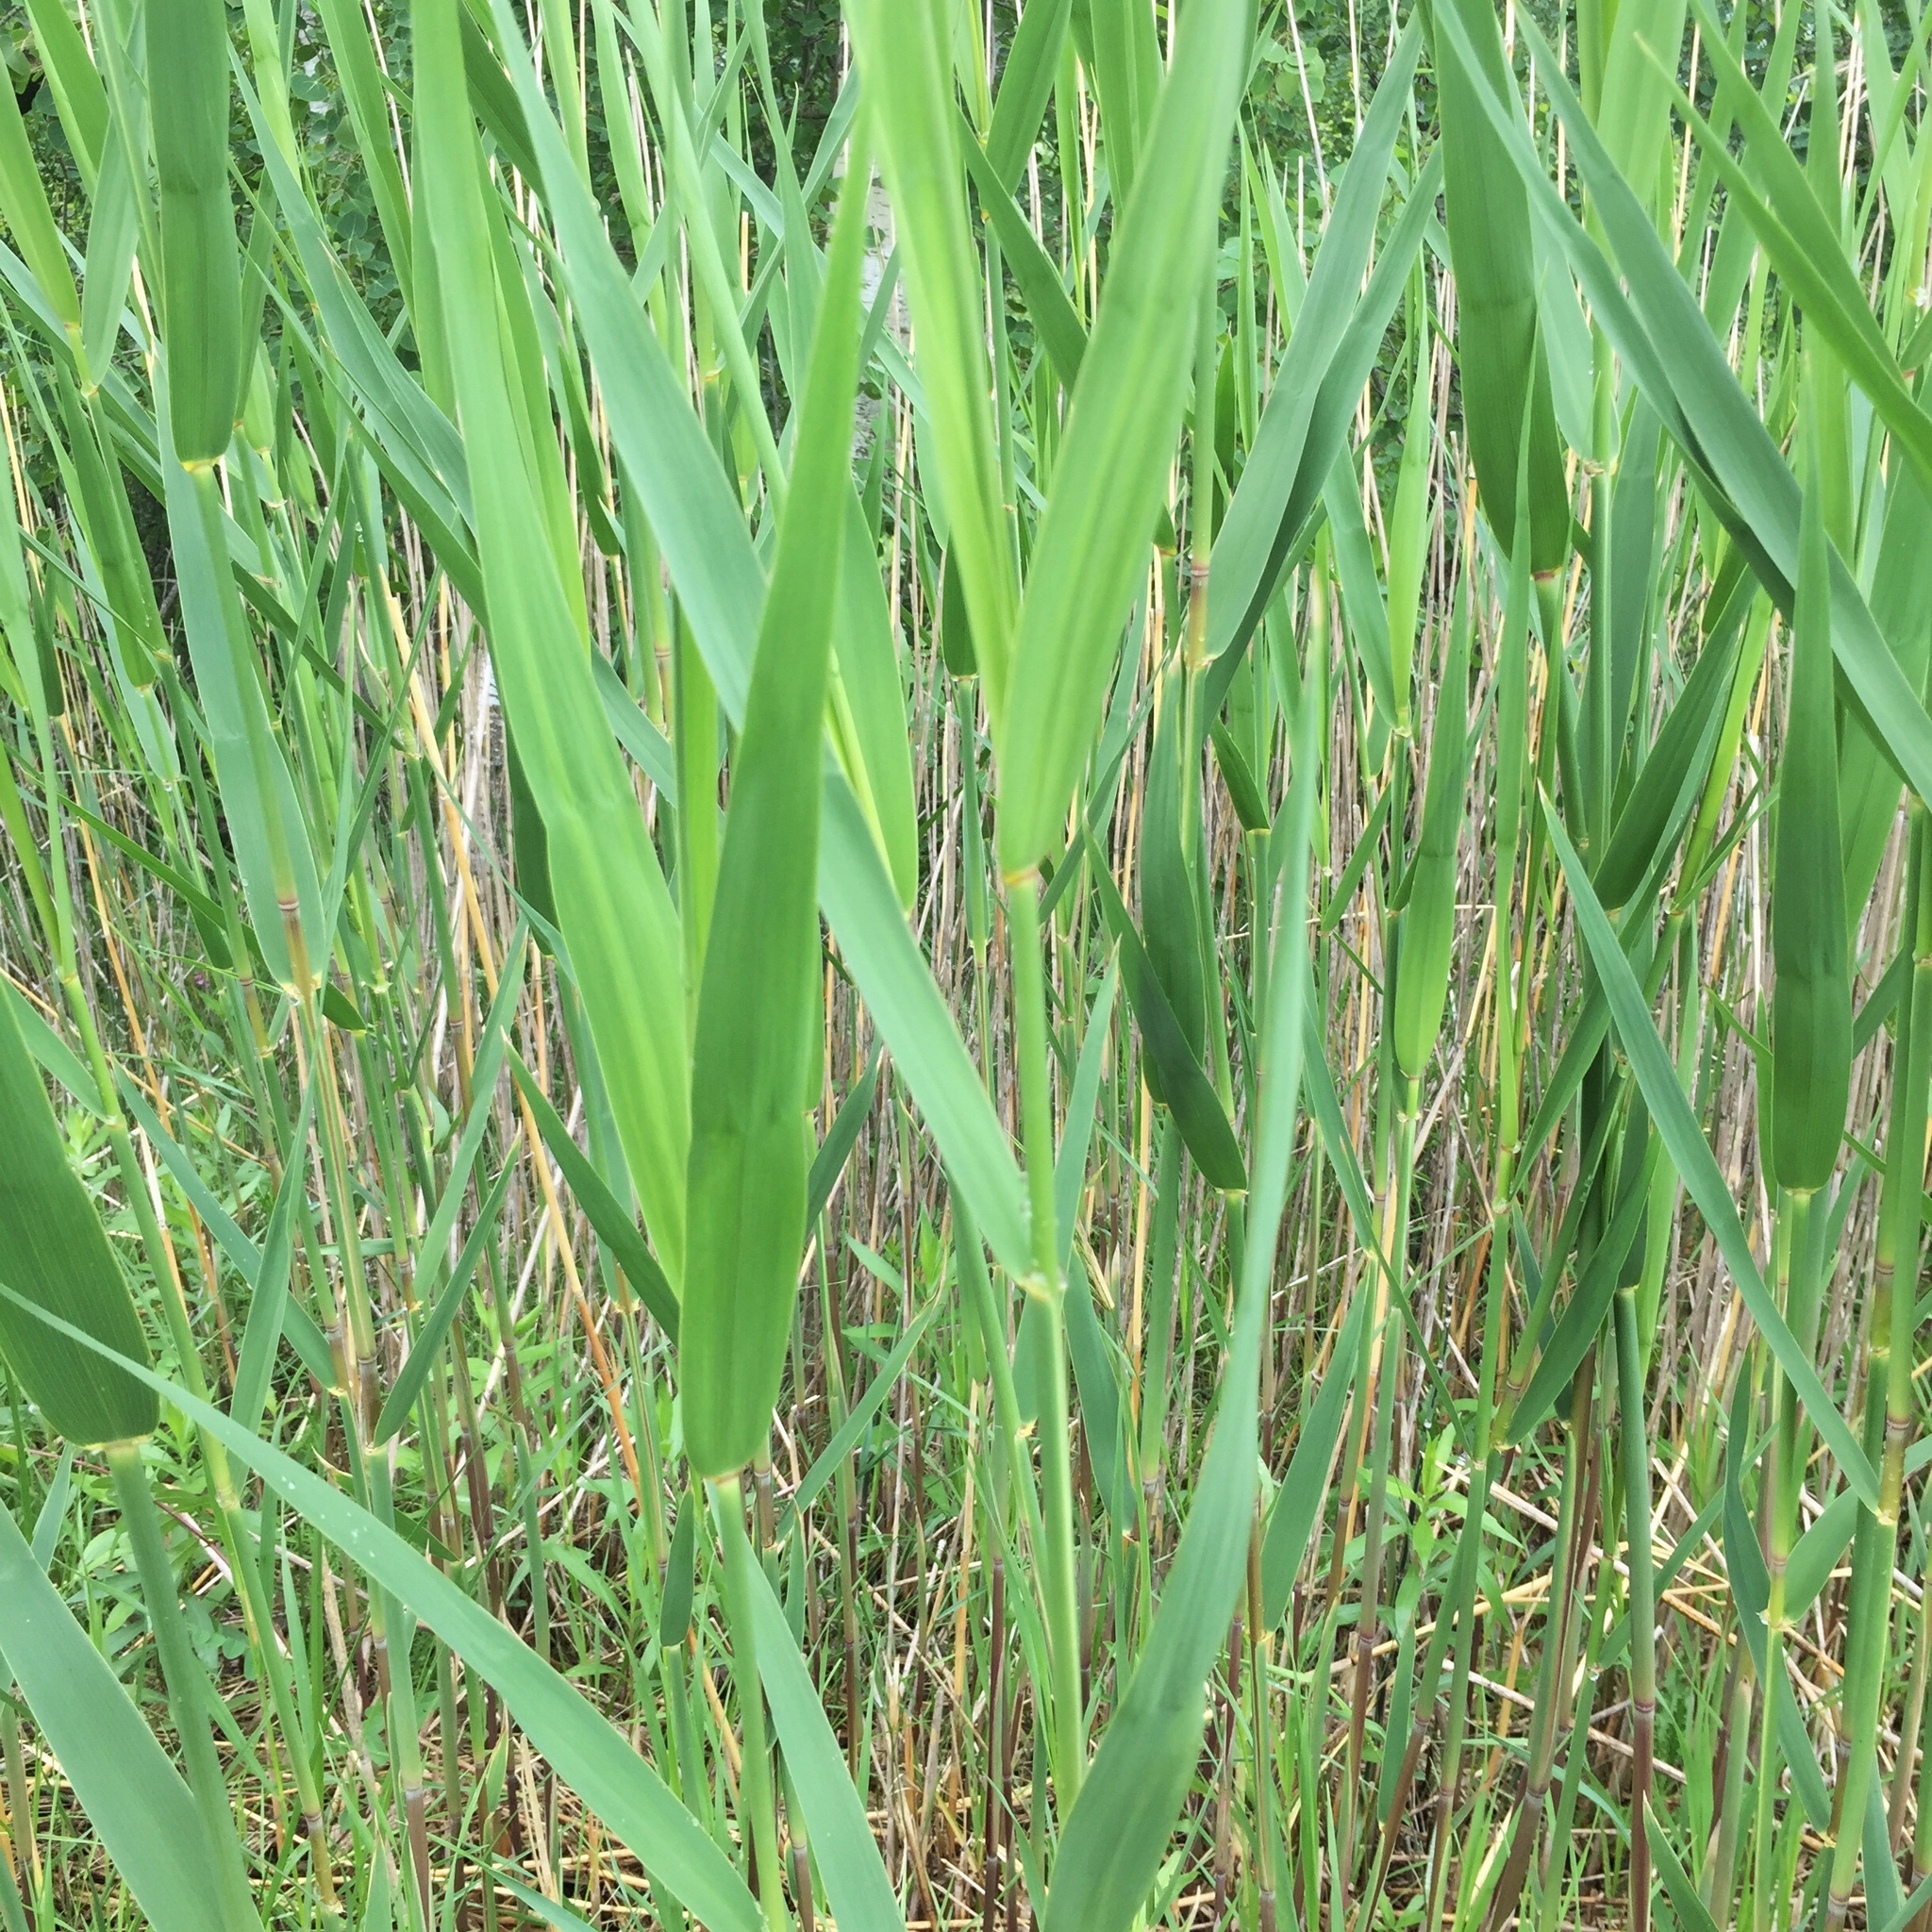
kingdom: Plantae
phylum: Tracheophyta
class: Liliopsida
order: Poales
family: Poaceae
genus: Phragmites
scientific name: Phragmites australis
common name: Common reed
